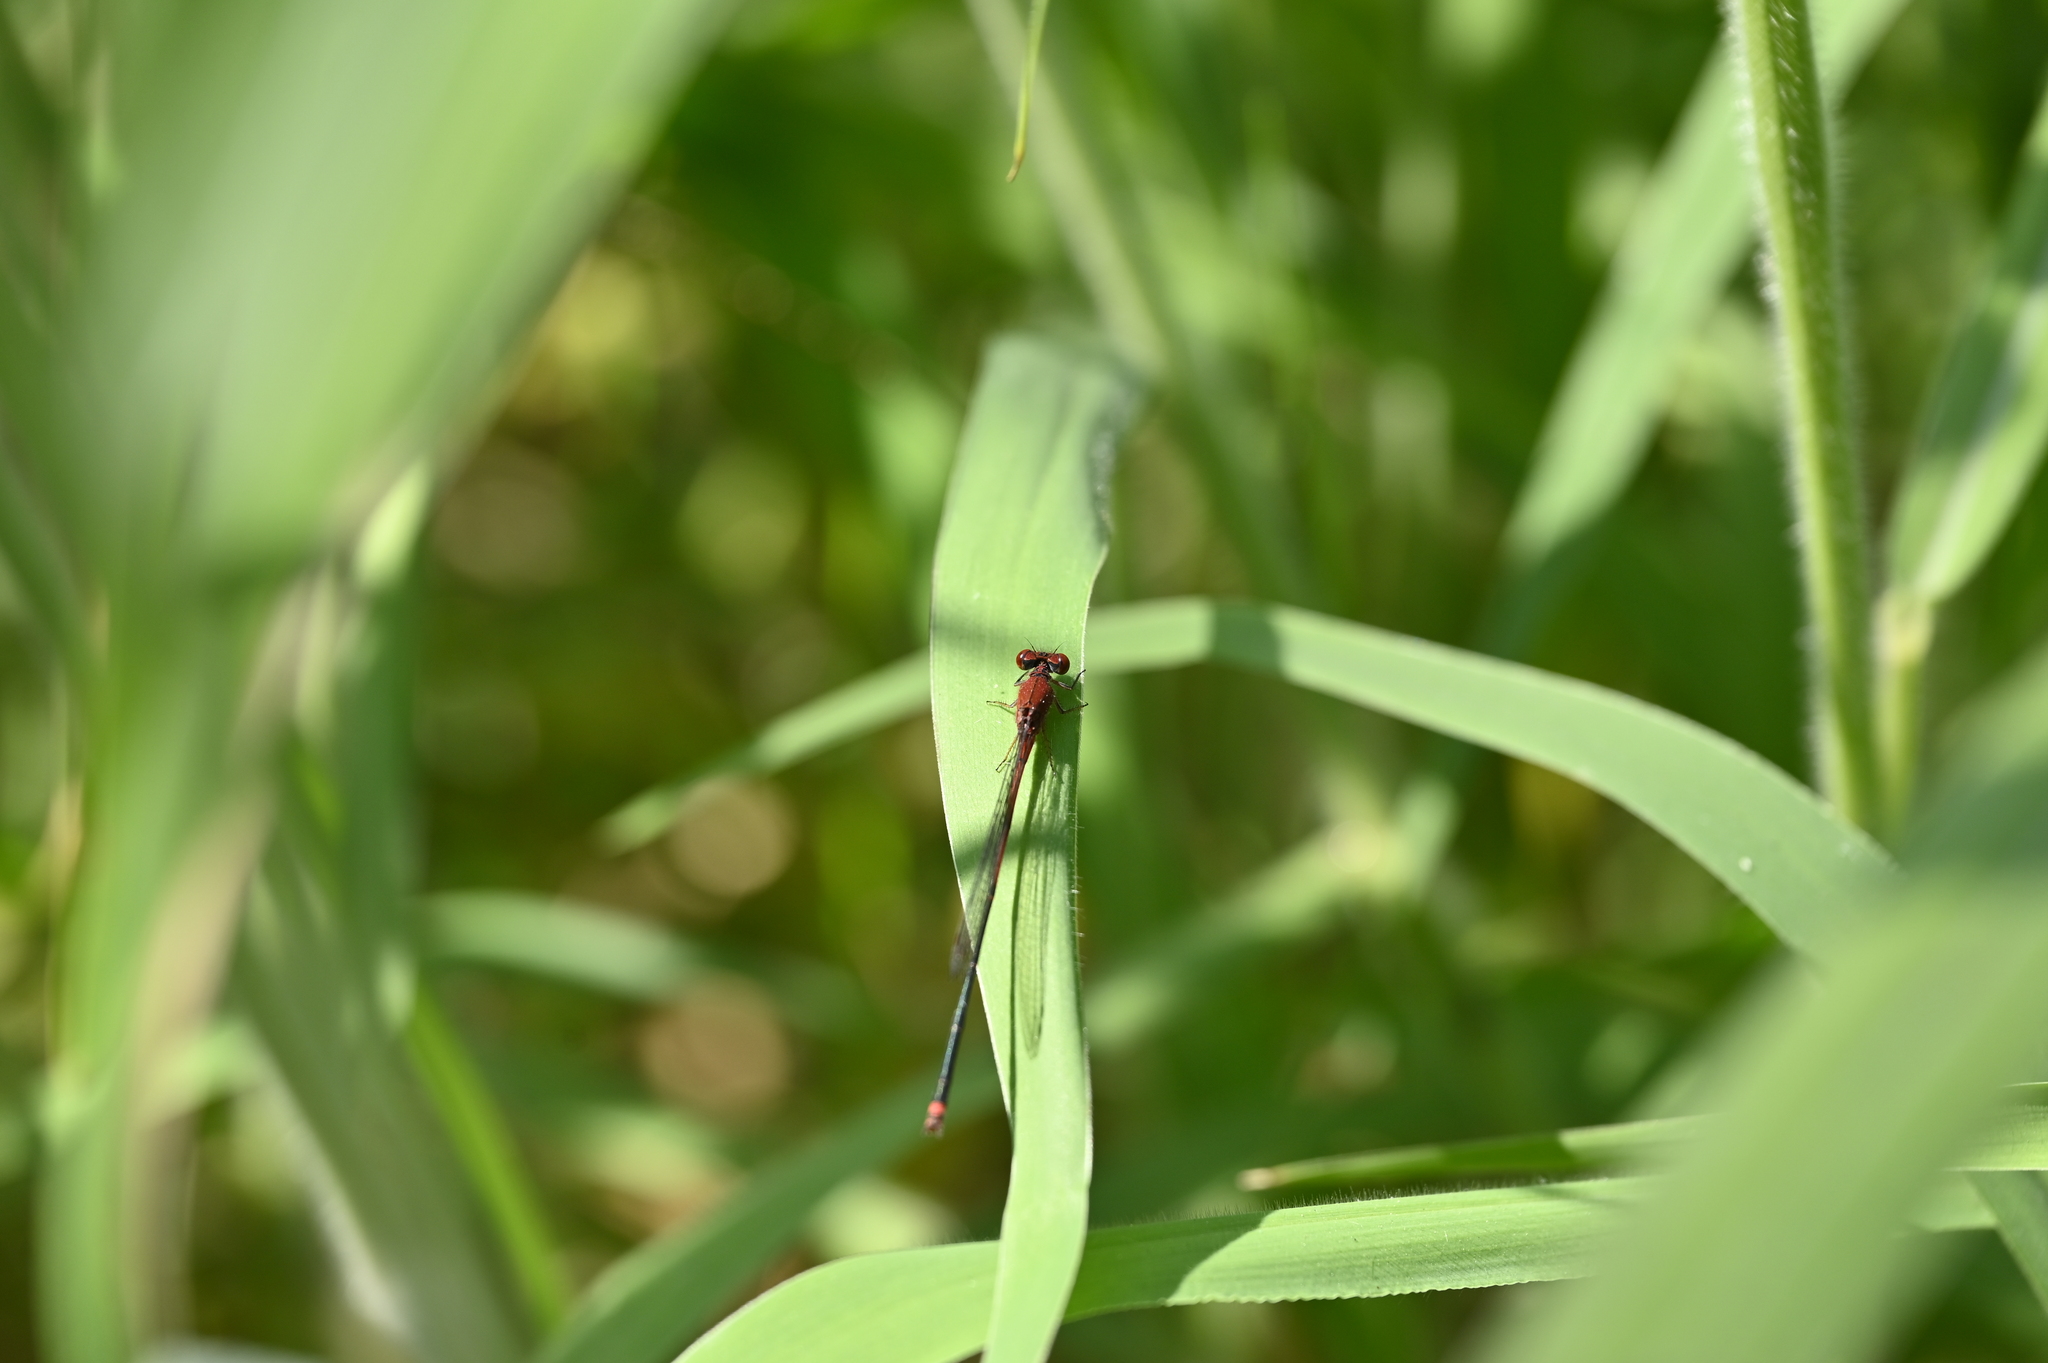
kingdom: Animalia
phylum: Arthropoda
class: Insecta
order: Odonata
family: Coenagrionidae
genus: Pseudagrion
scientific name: Pseudagrion pilidorsum
